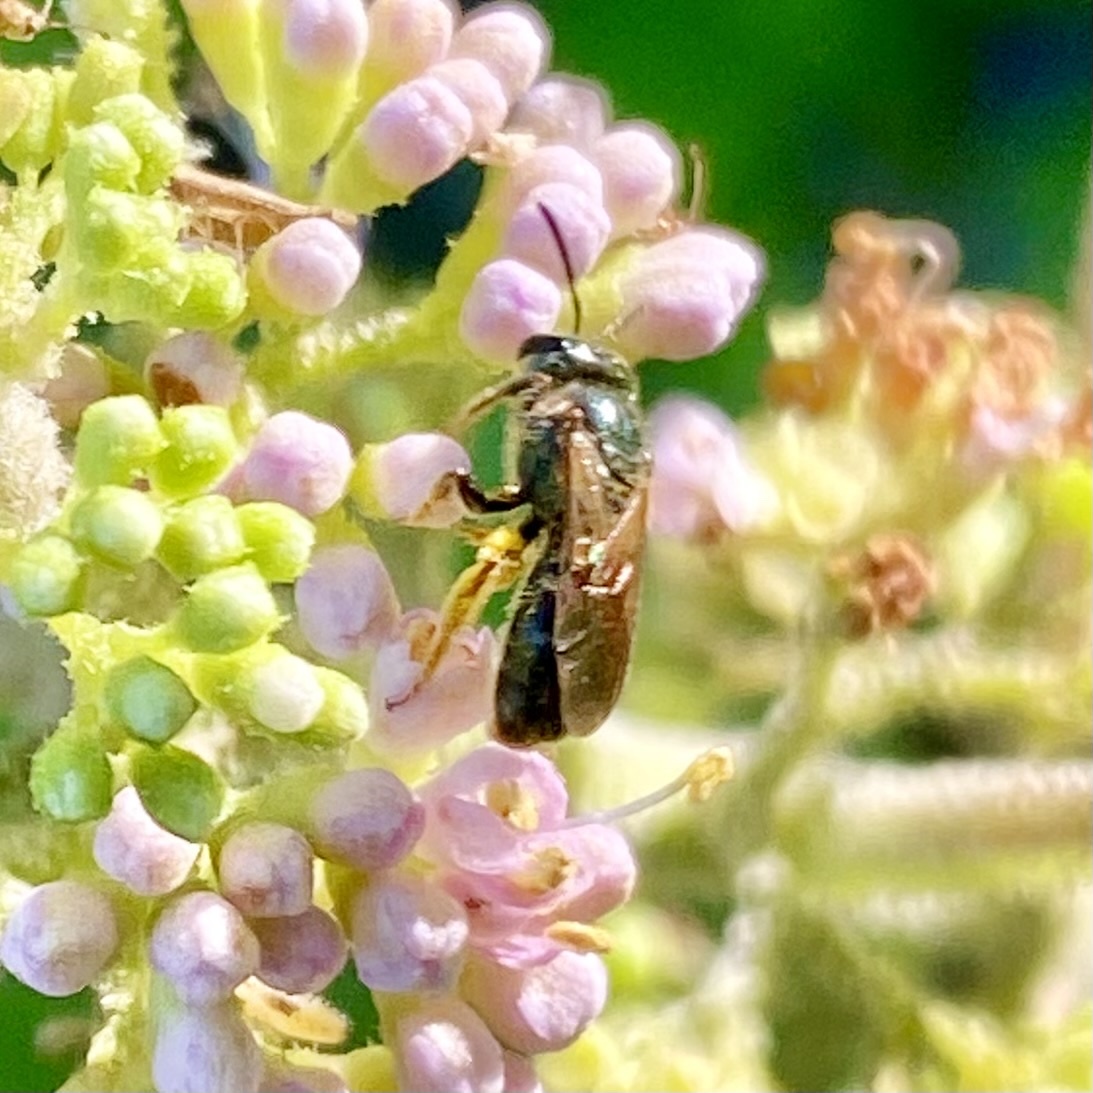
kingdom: Animalia
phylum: Arthropoda
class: Insecta
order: Hymenoptera
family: Halictidae
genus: Lasioglossum
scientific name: Lasioglossum reticulatum
